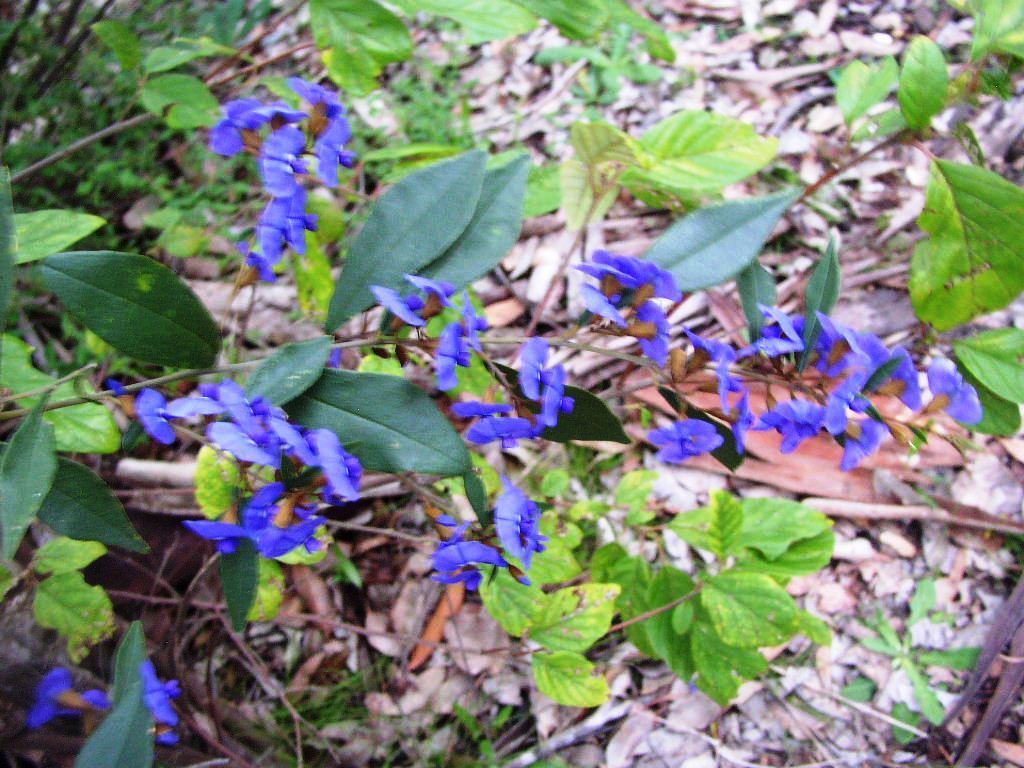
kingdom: Plantae
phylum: Tracheophyta
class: Magnoliopsida
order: Fabales
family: Fabaceae
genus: Hovea
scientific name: Hovea elliptica
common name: Tree hovea
